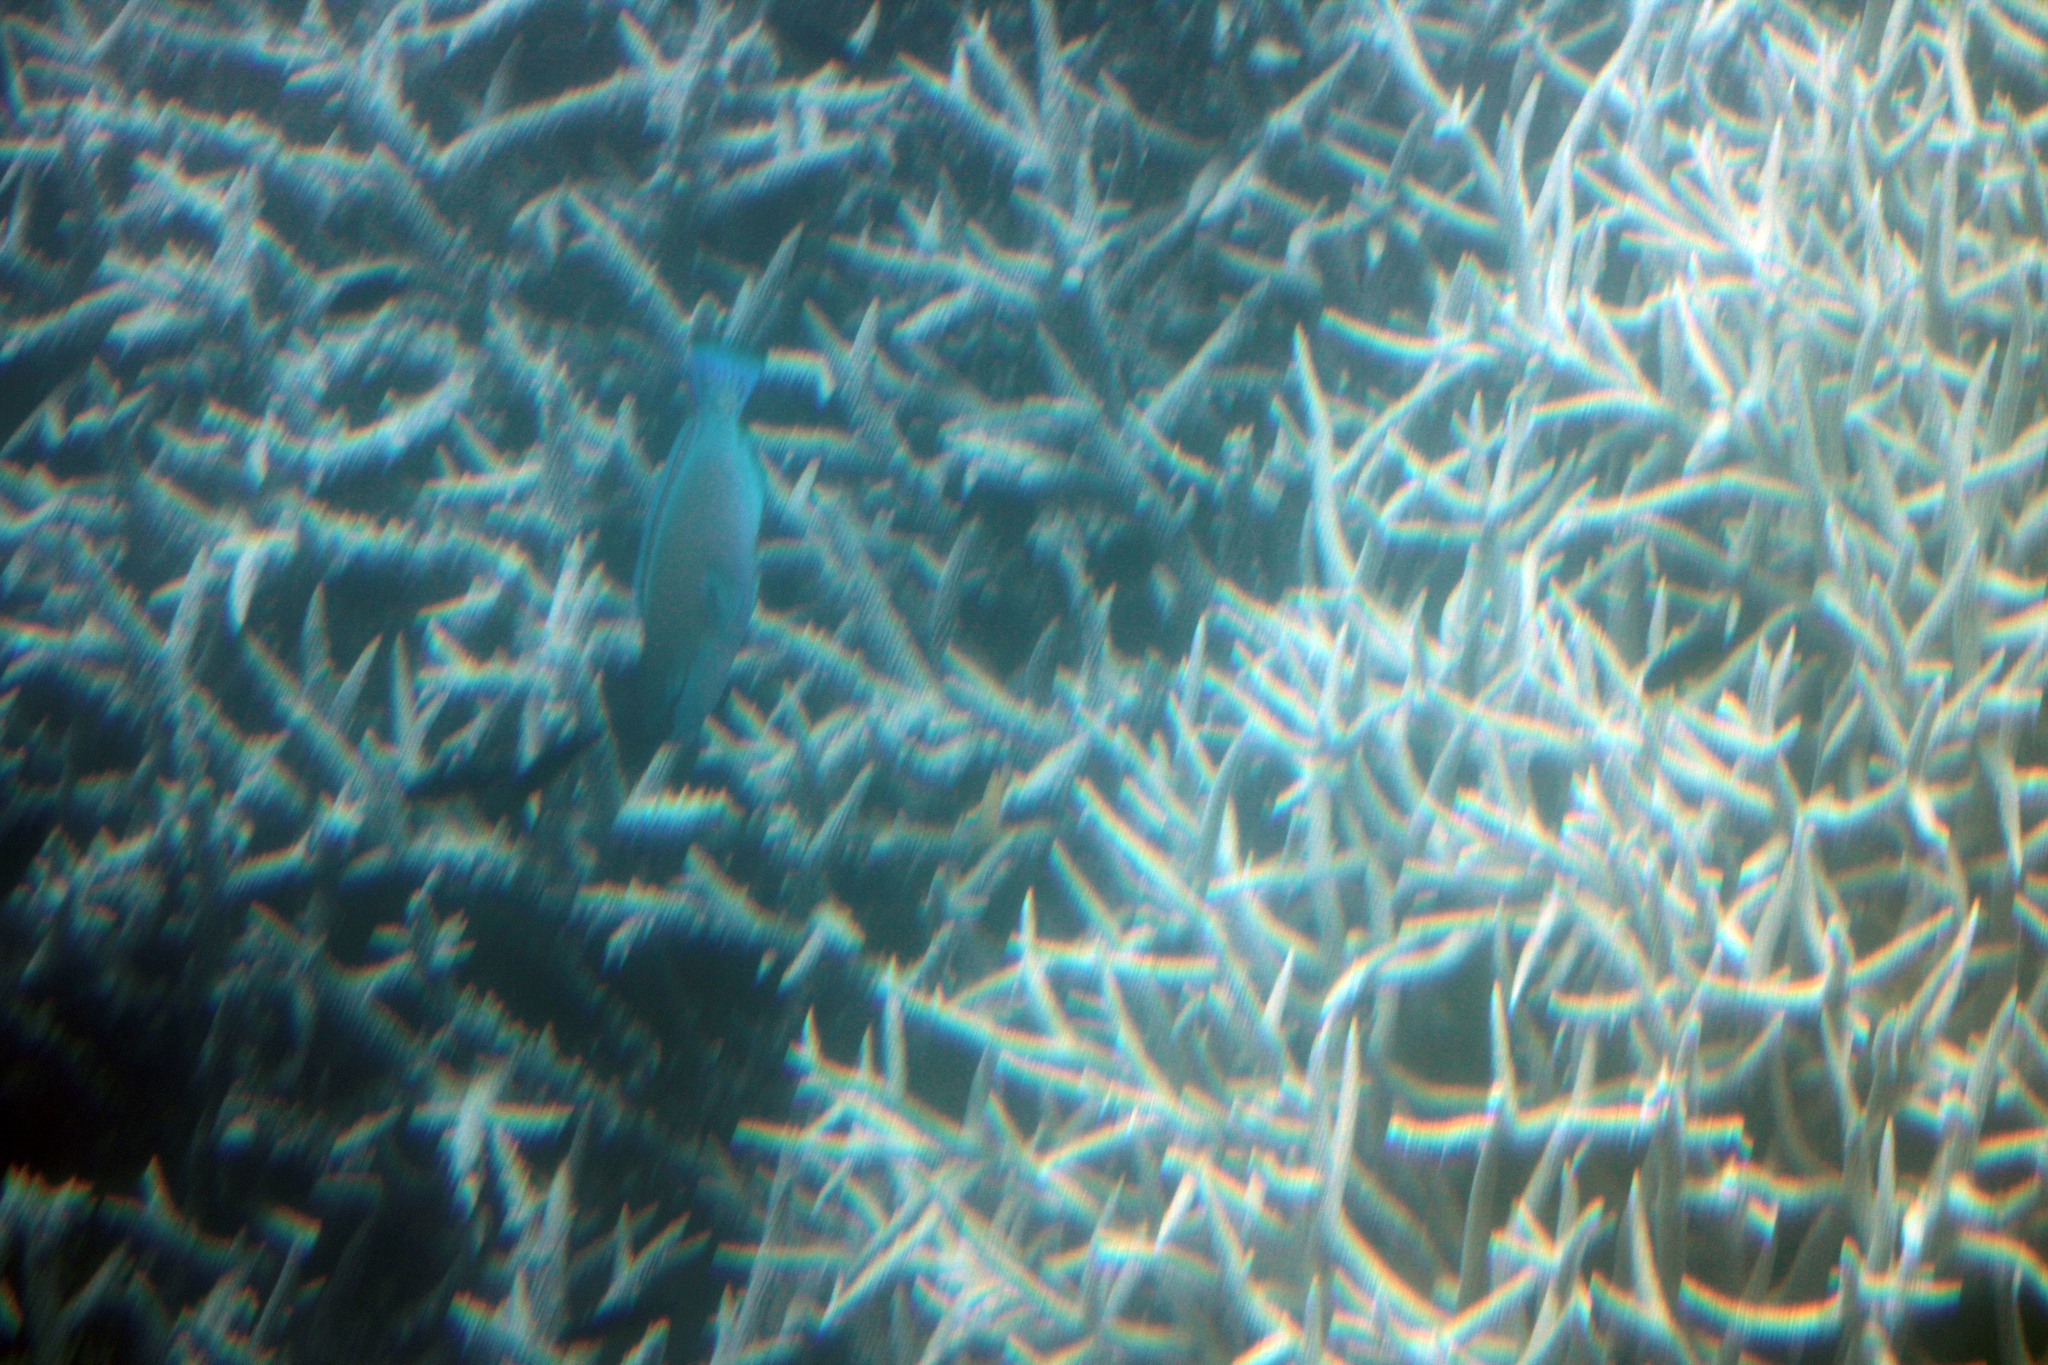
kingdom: Animalia
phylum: Chordata
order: Perciformes
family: Scaridae
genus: Chlorurus
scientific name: Chlorurus spilurus
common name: Bullethead parrotfish
